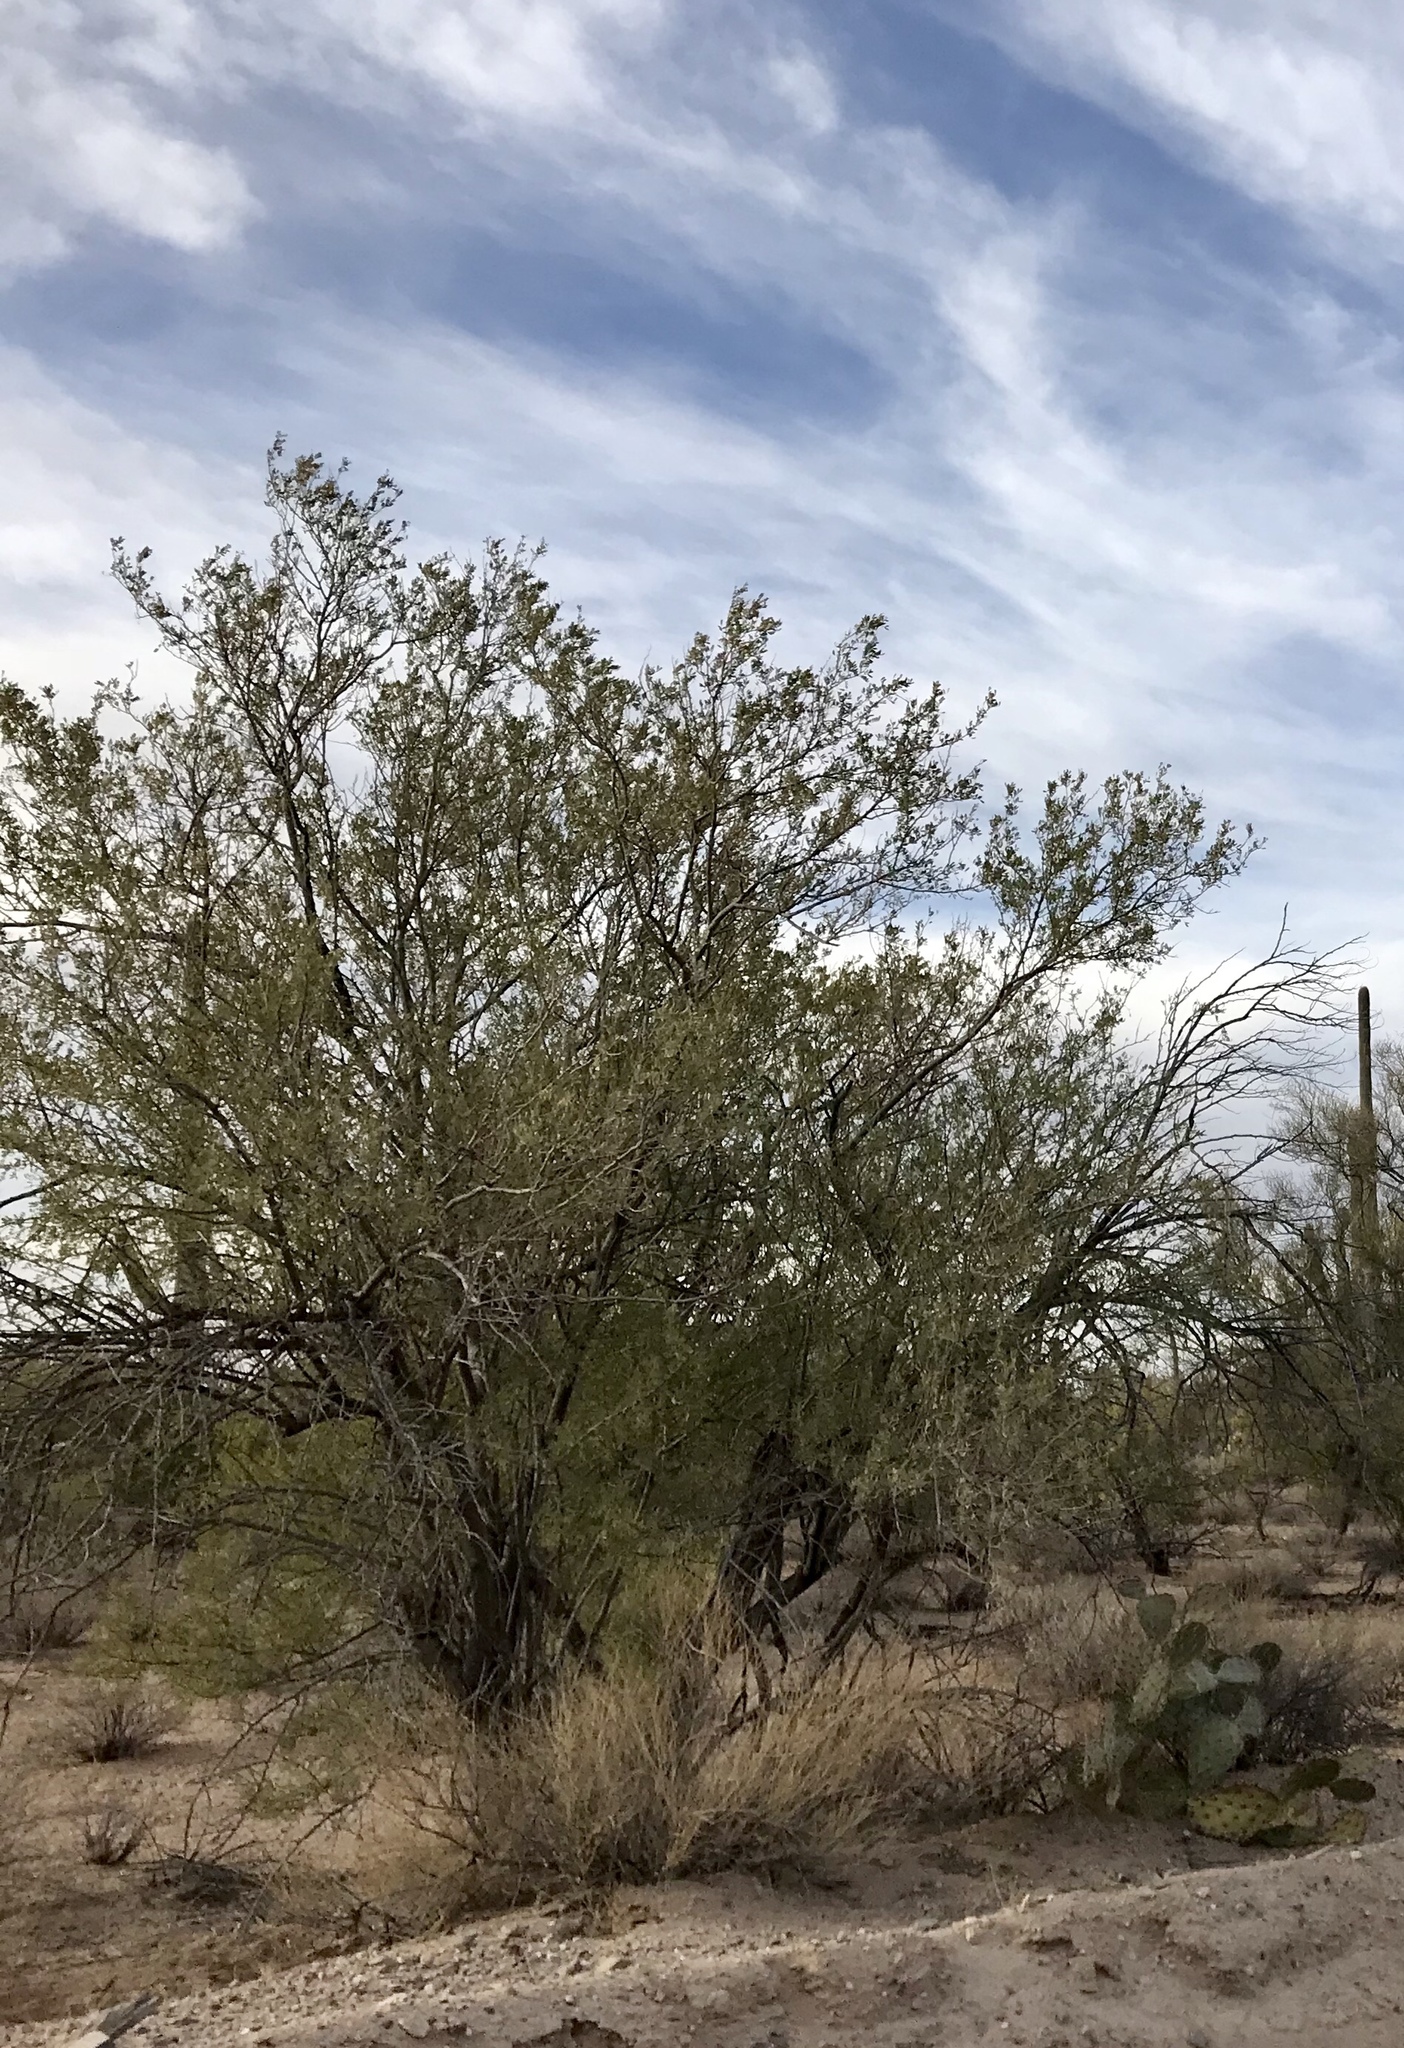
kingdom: Plantae
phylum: Tracheophyta
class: Magnoliopsida
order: Fabales
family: Fabaceae
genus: Olneya
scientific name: Olneya tesota
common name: Desert ironwood
